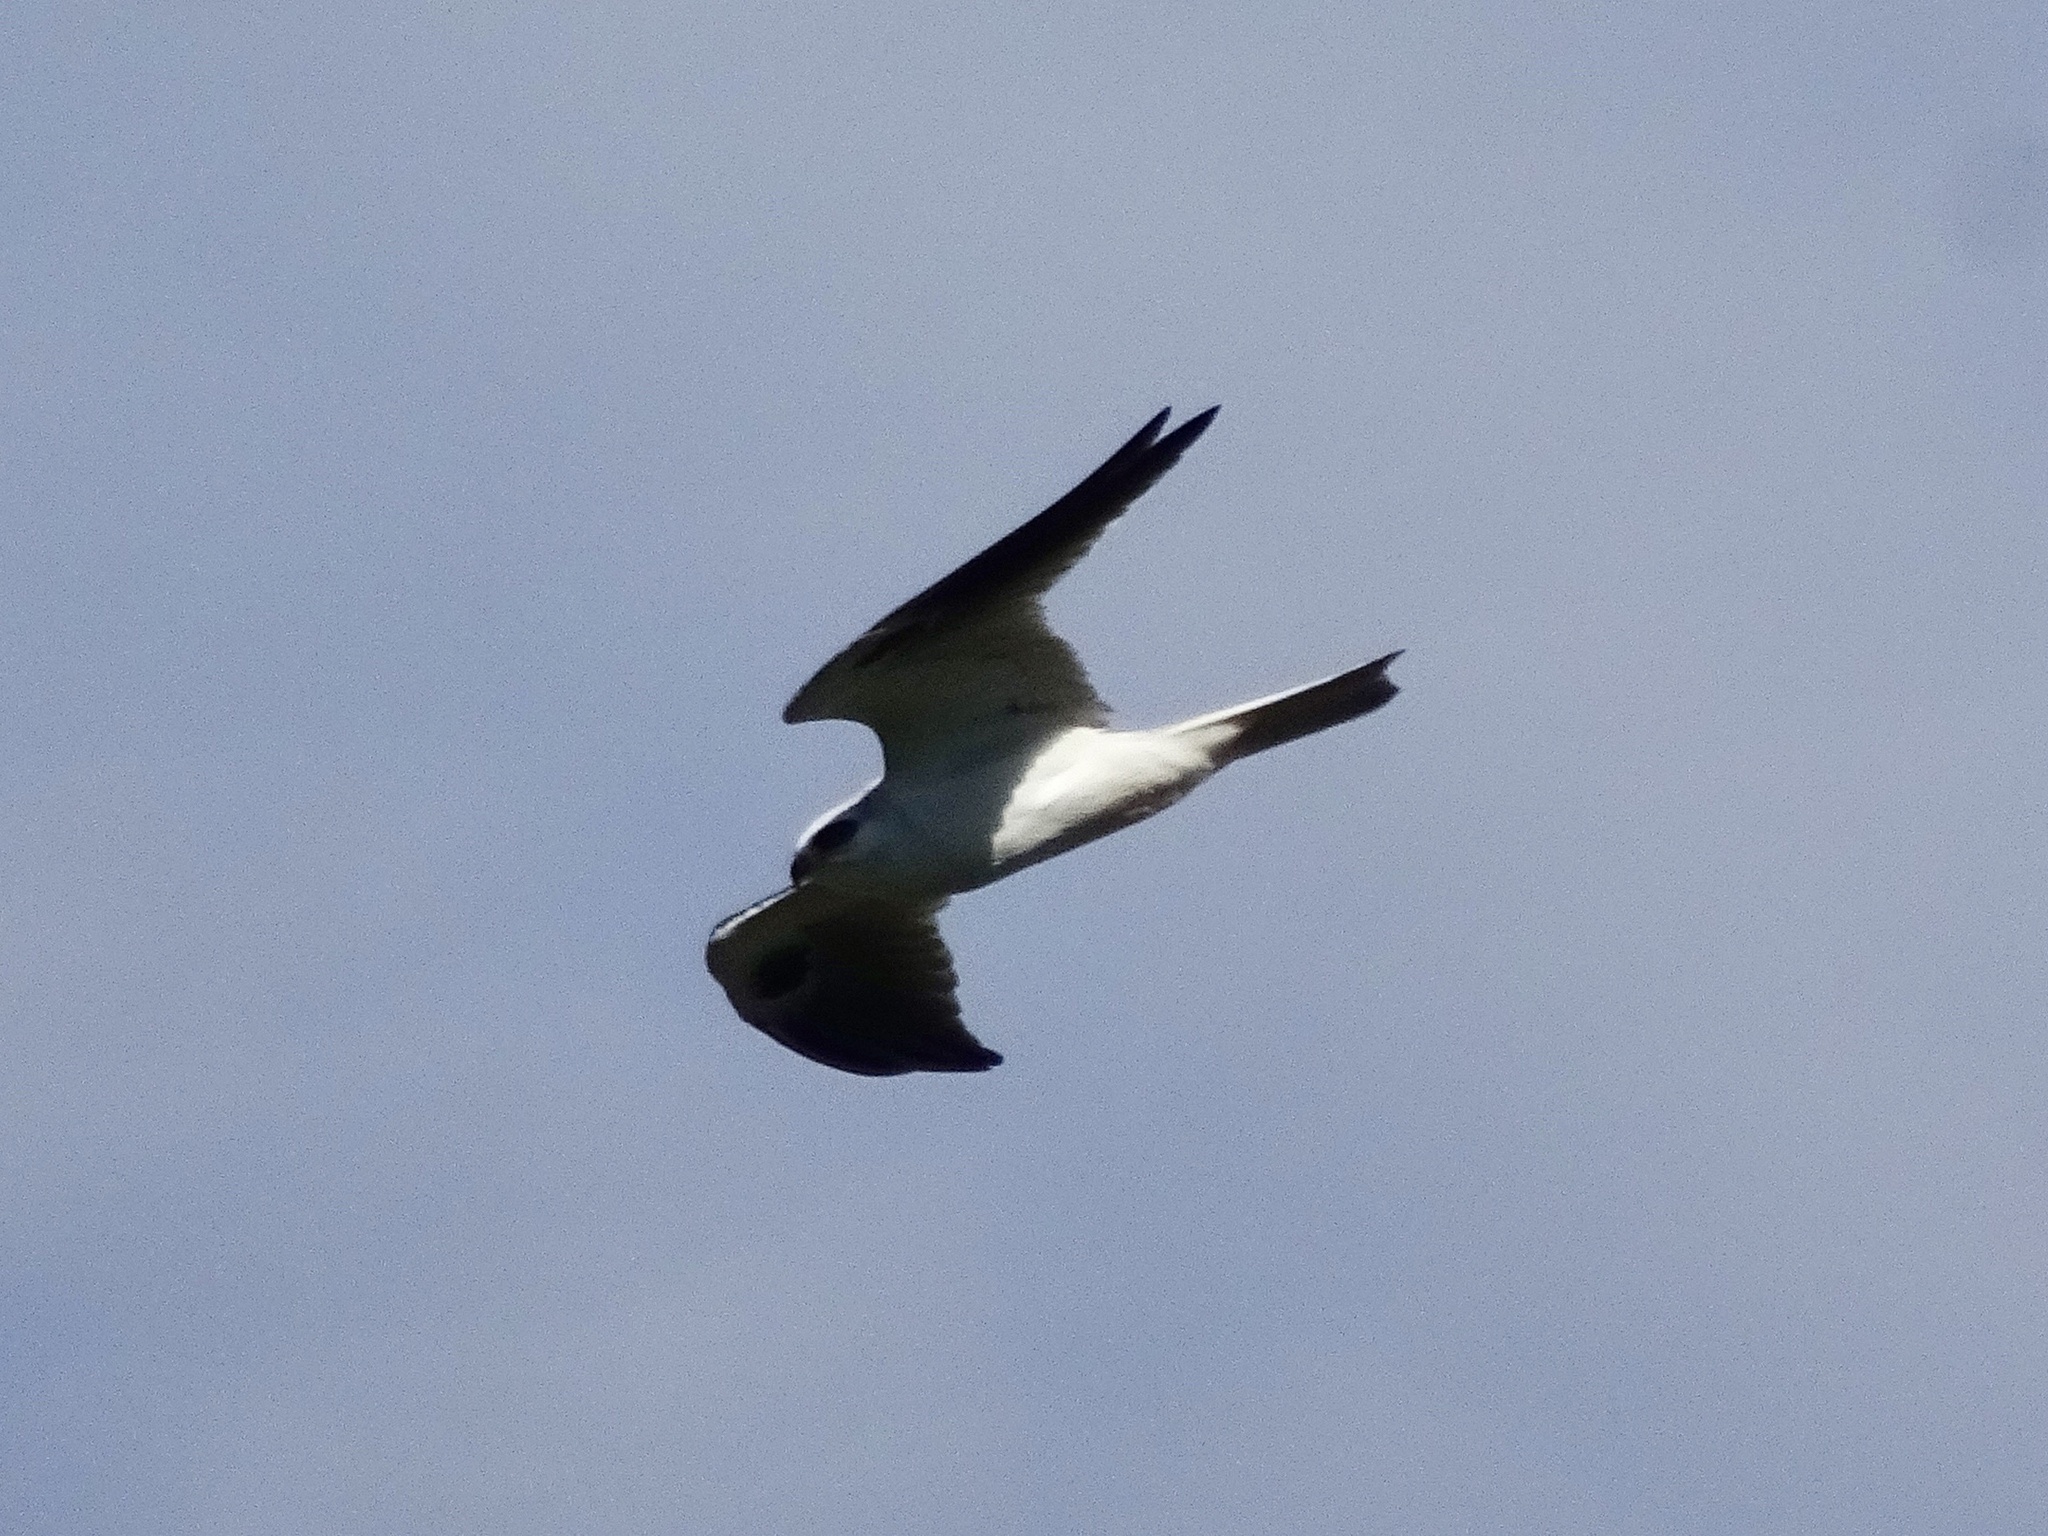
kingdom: Animalia
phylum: Chordata
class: Aves
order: Accipitriformes
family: Accipitridae
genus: Elanus
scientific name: Elanus leucurus
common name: White-tailed kite
